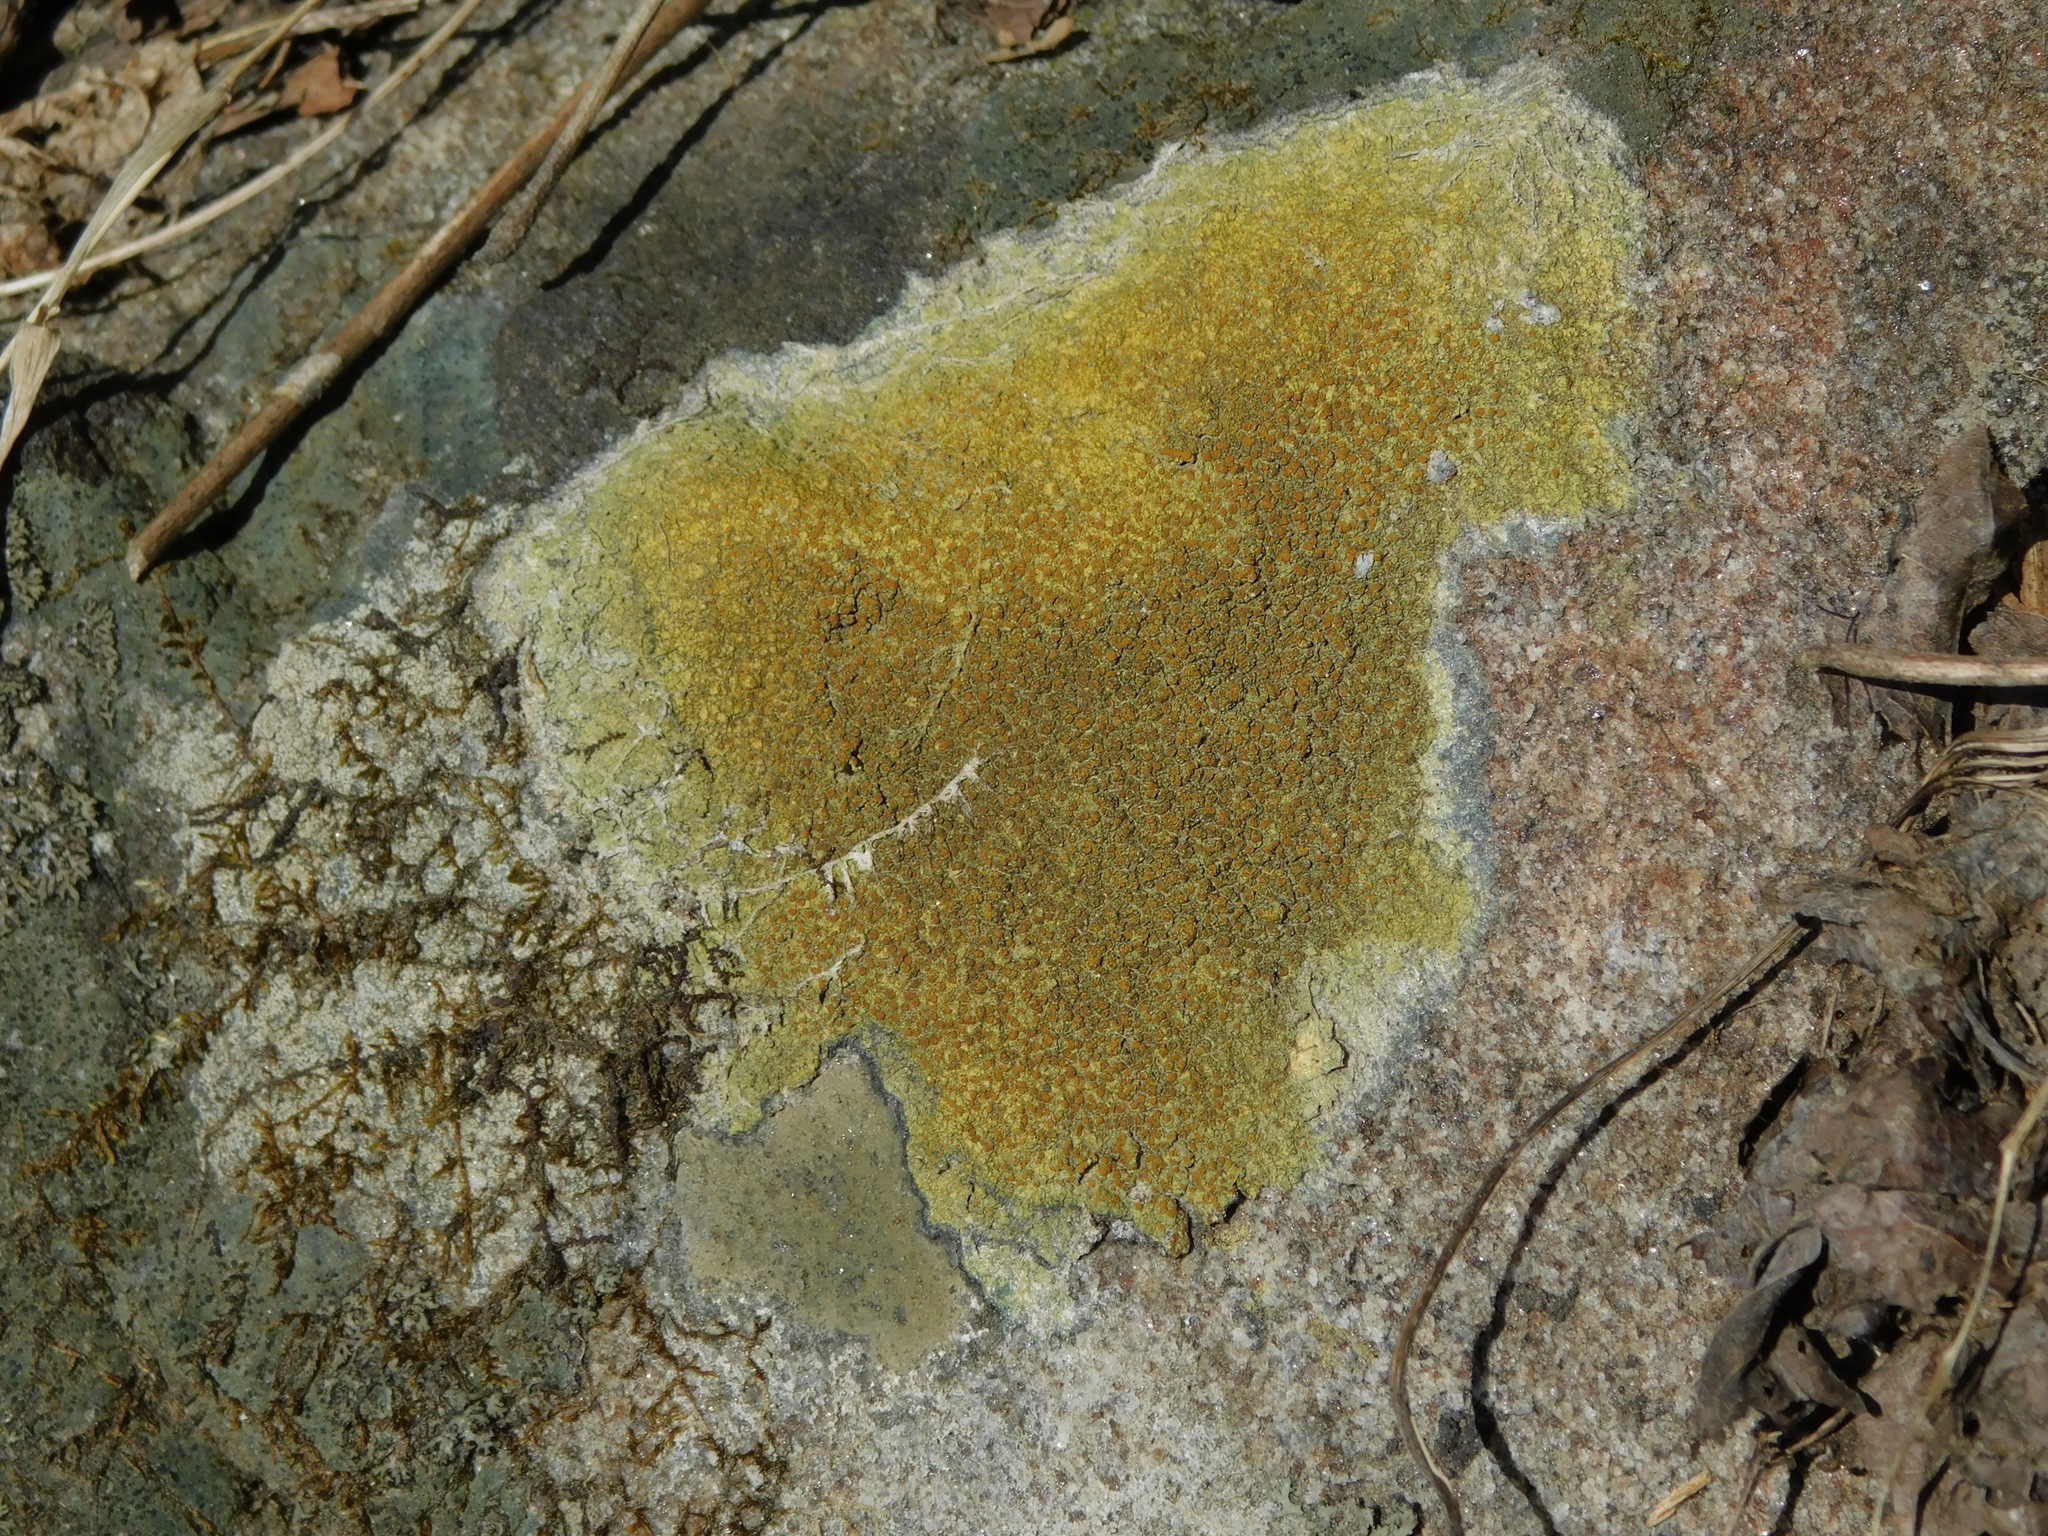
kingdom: Fungi
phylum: Ascomycota
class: Lecanoromycetes
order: Teloschistales
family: Teloschistaceae
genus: Gyalolechia
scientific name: Gyalolechia flavovirescens
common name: Sulphur firedot
